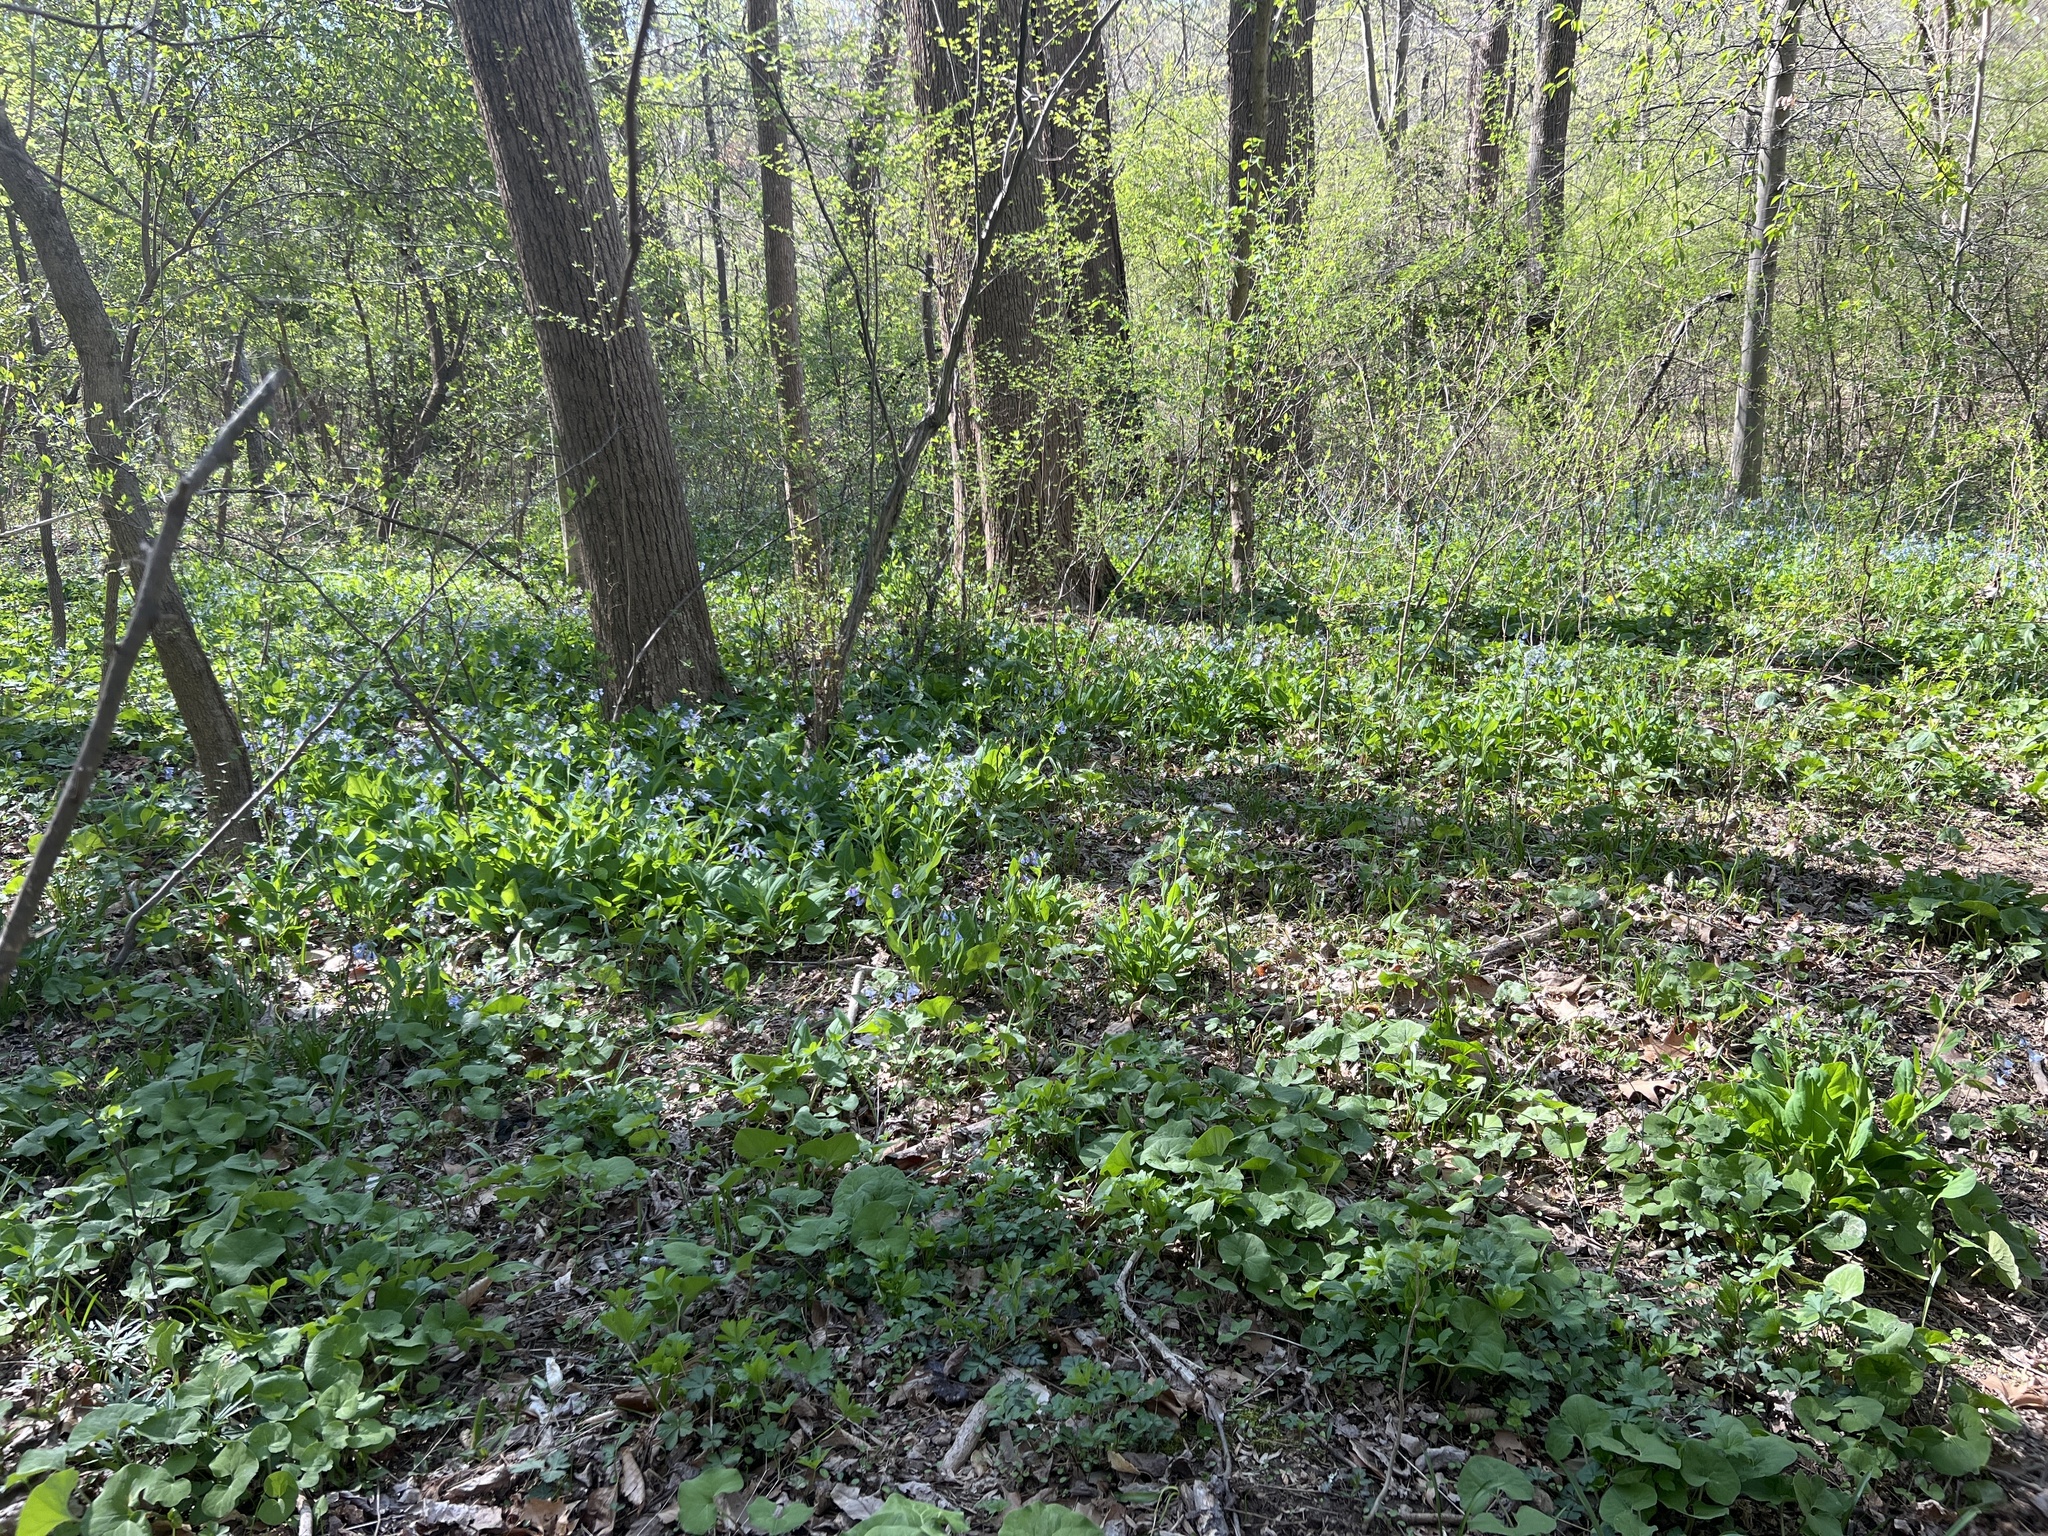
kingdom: Plantae
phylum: Tracheophyta
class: Magnoliopsida
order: Boraginales
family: Boraginaceae
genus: Mertensia
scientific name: Mertensia virginica
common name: Virginia bluebells
